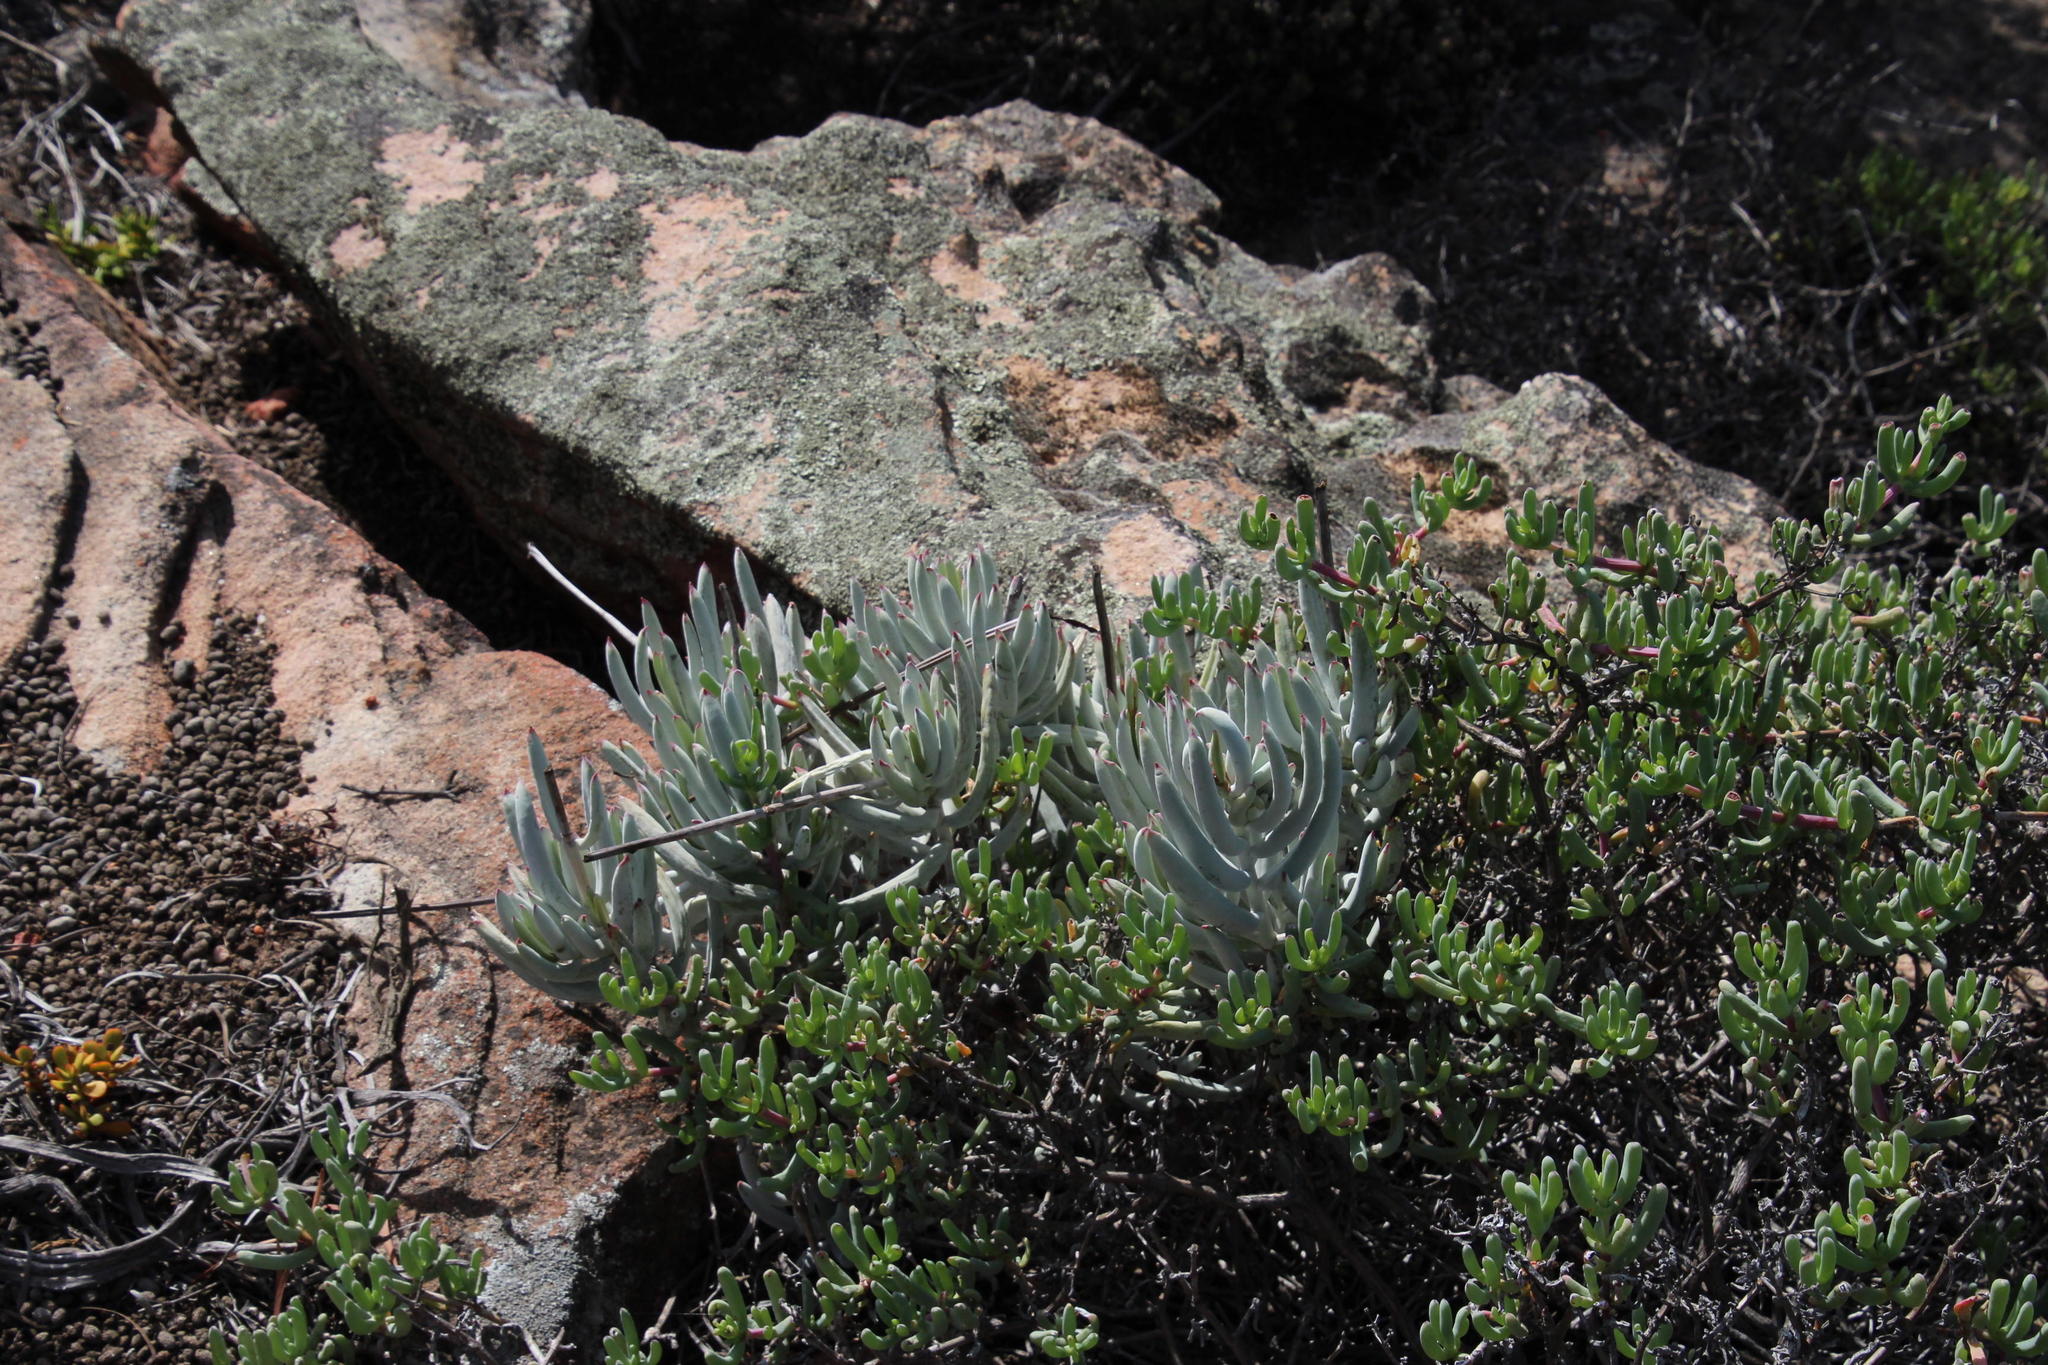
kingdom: Plantae
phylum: Tracheophyta
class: Magnoliopsida
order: Saxifragales
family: Crassulaceae
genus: Cotyledon
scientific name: Cotyledon orbiculata
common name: Pig's ear
